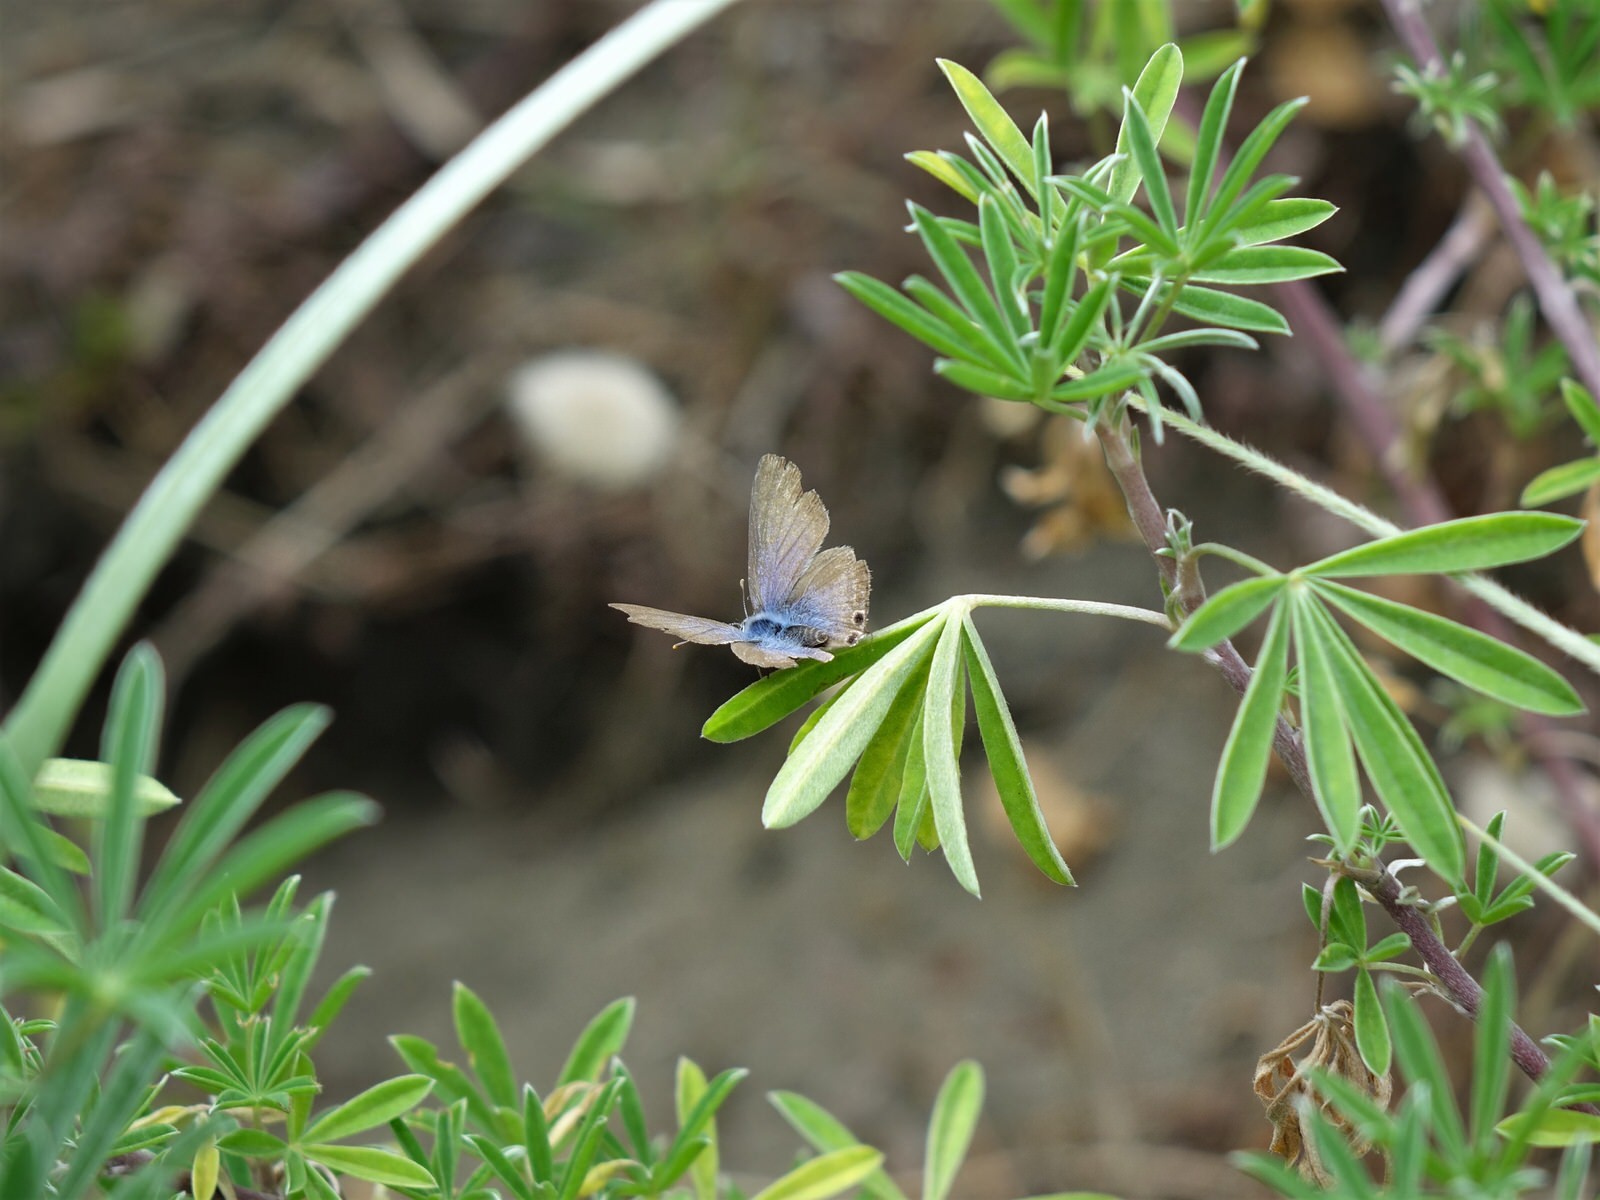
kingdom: Animalia
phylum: Arthropoda
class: Insecta
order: Lepidoptera
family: Lycaenidae
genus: Lampides
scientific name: Lampides boeticus
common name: Long-tailed blue
